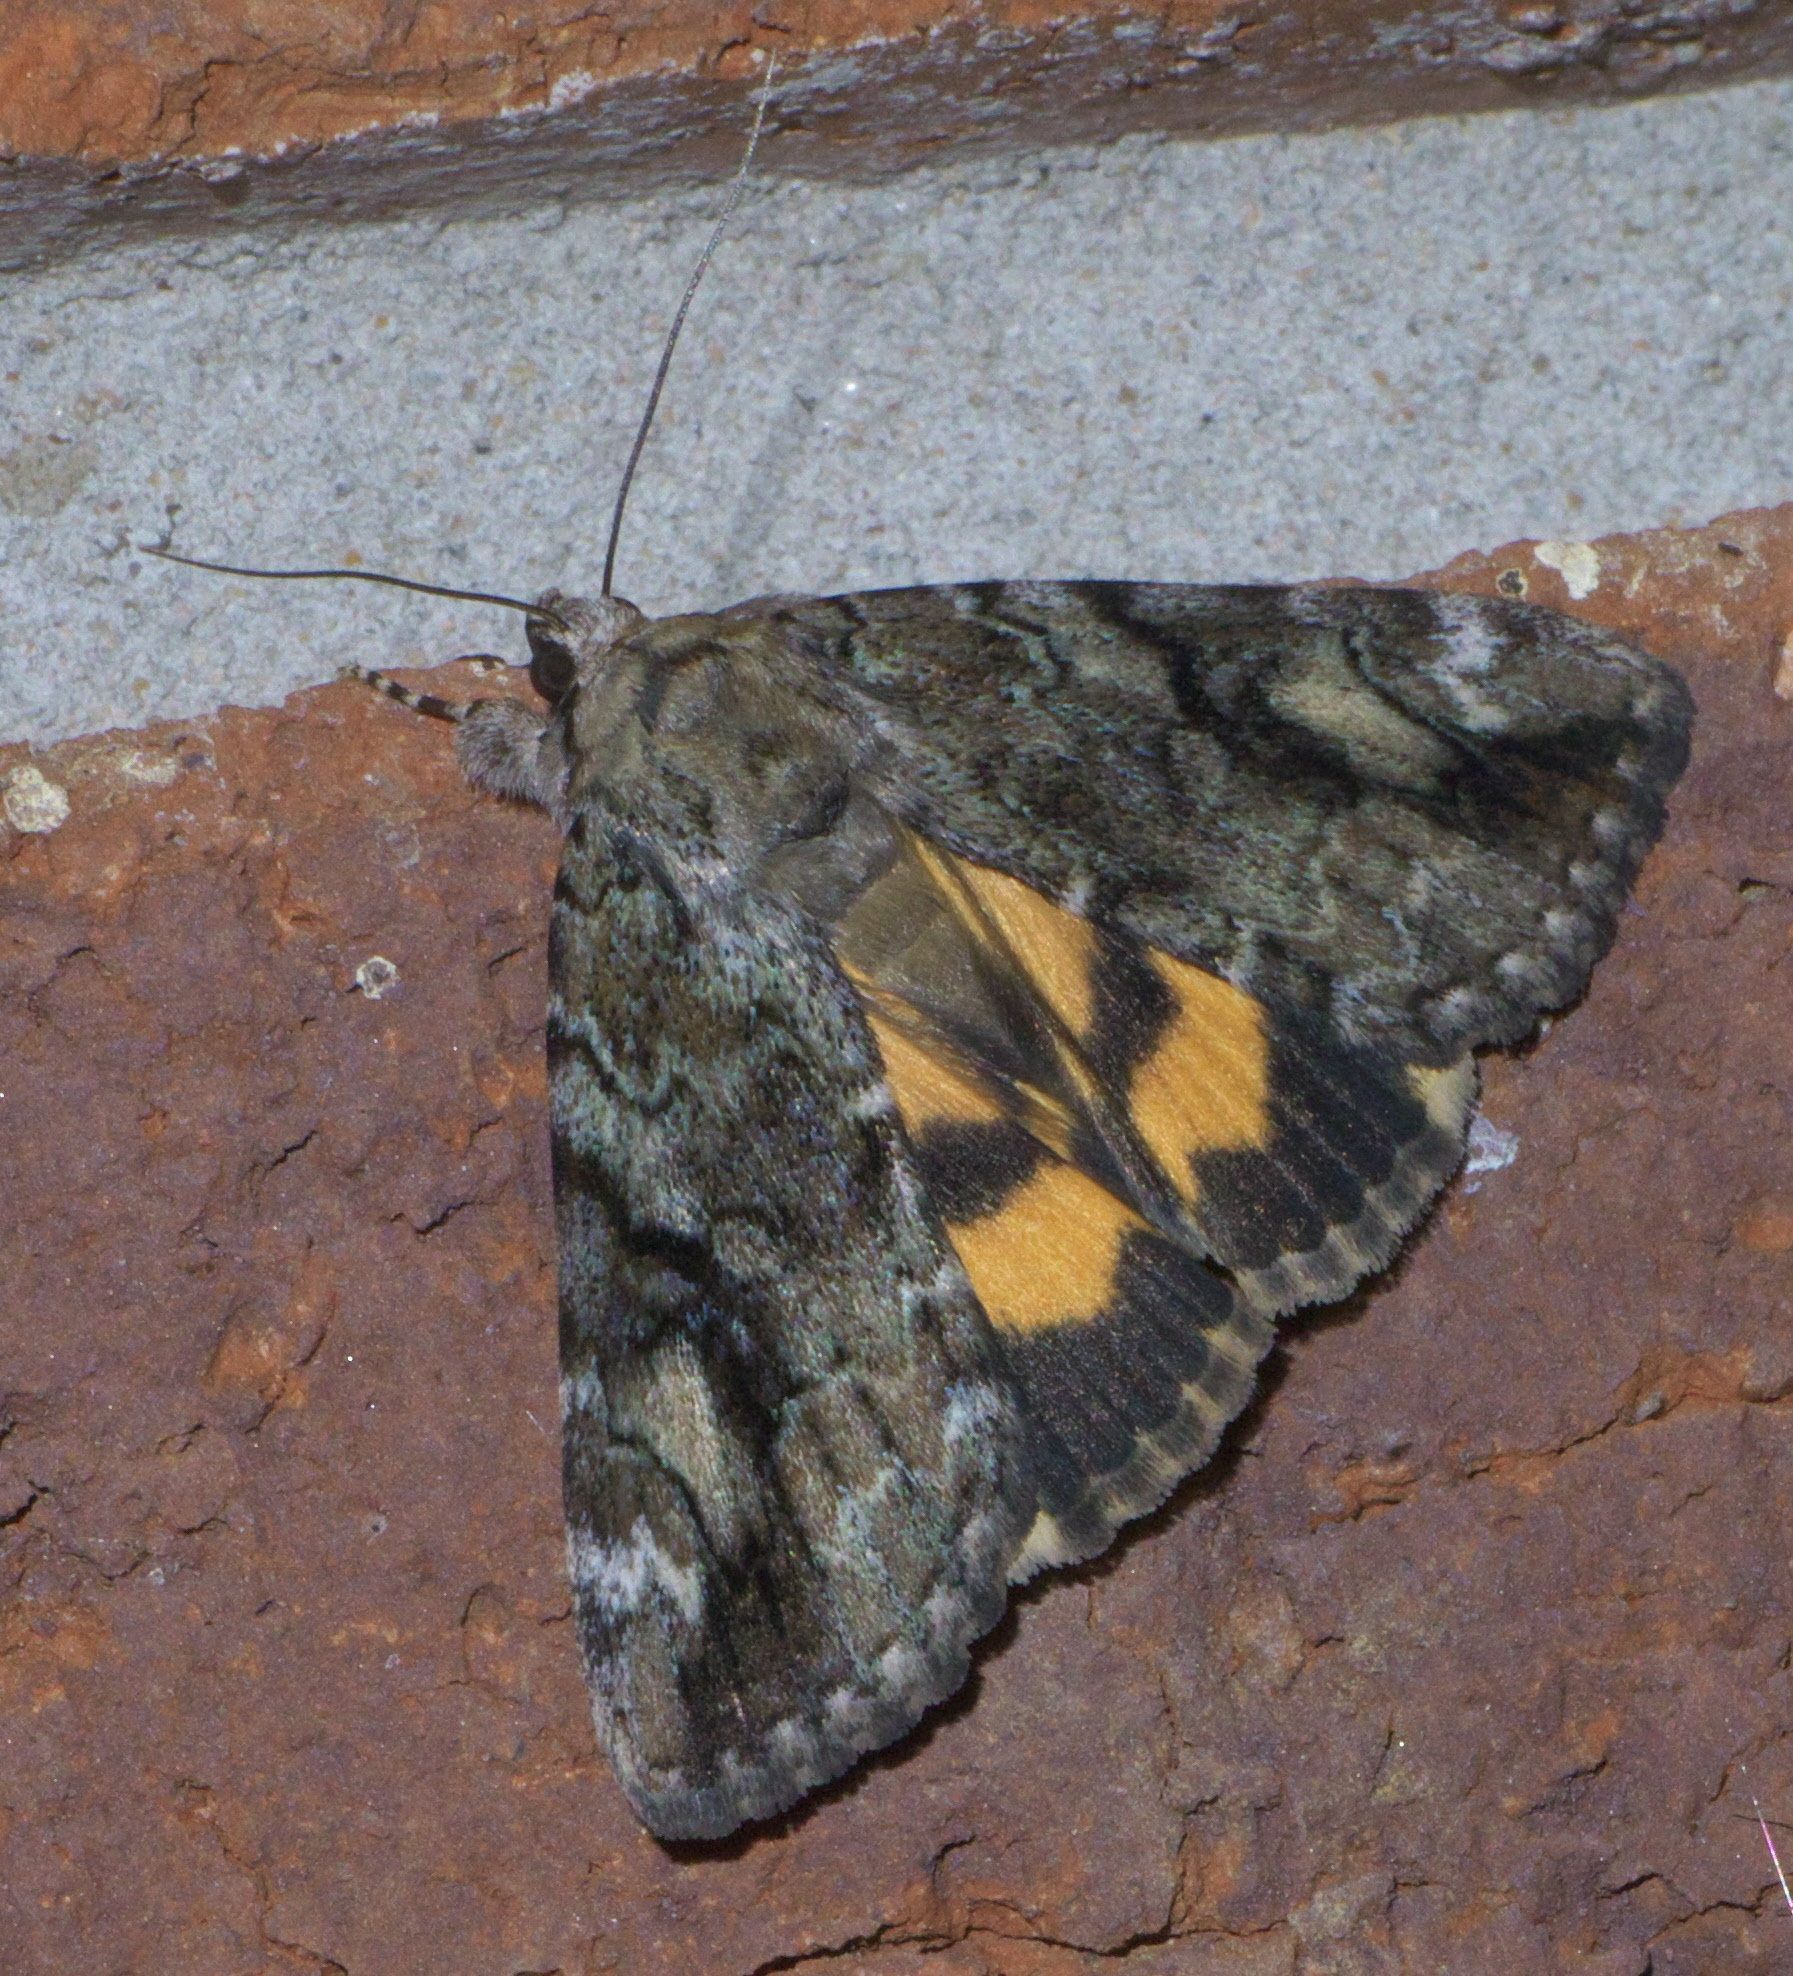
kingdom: Animalia
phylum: Arthropoda
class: Insecta
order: Lepidoptera
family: Erebidae
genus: Catocala
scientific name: Catocala micronympha
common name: Little nymph underwing
